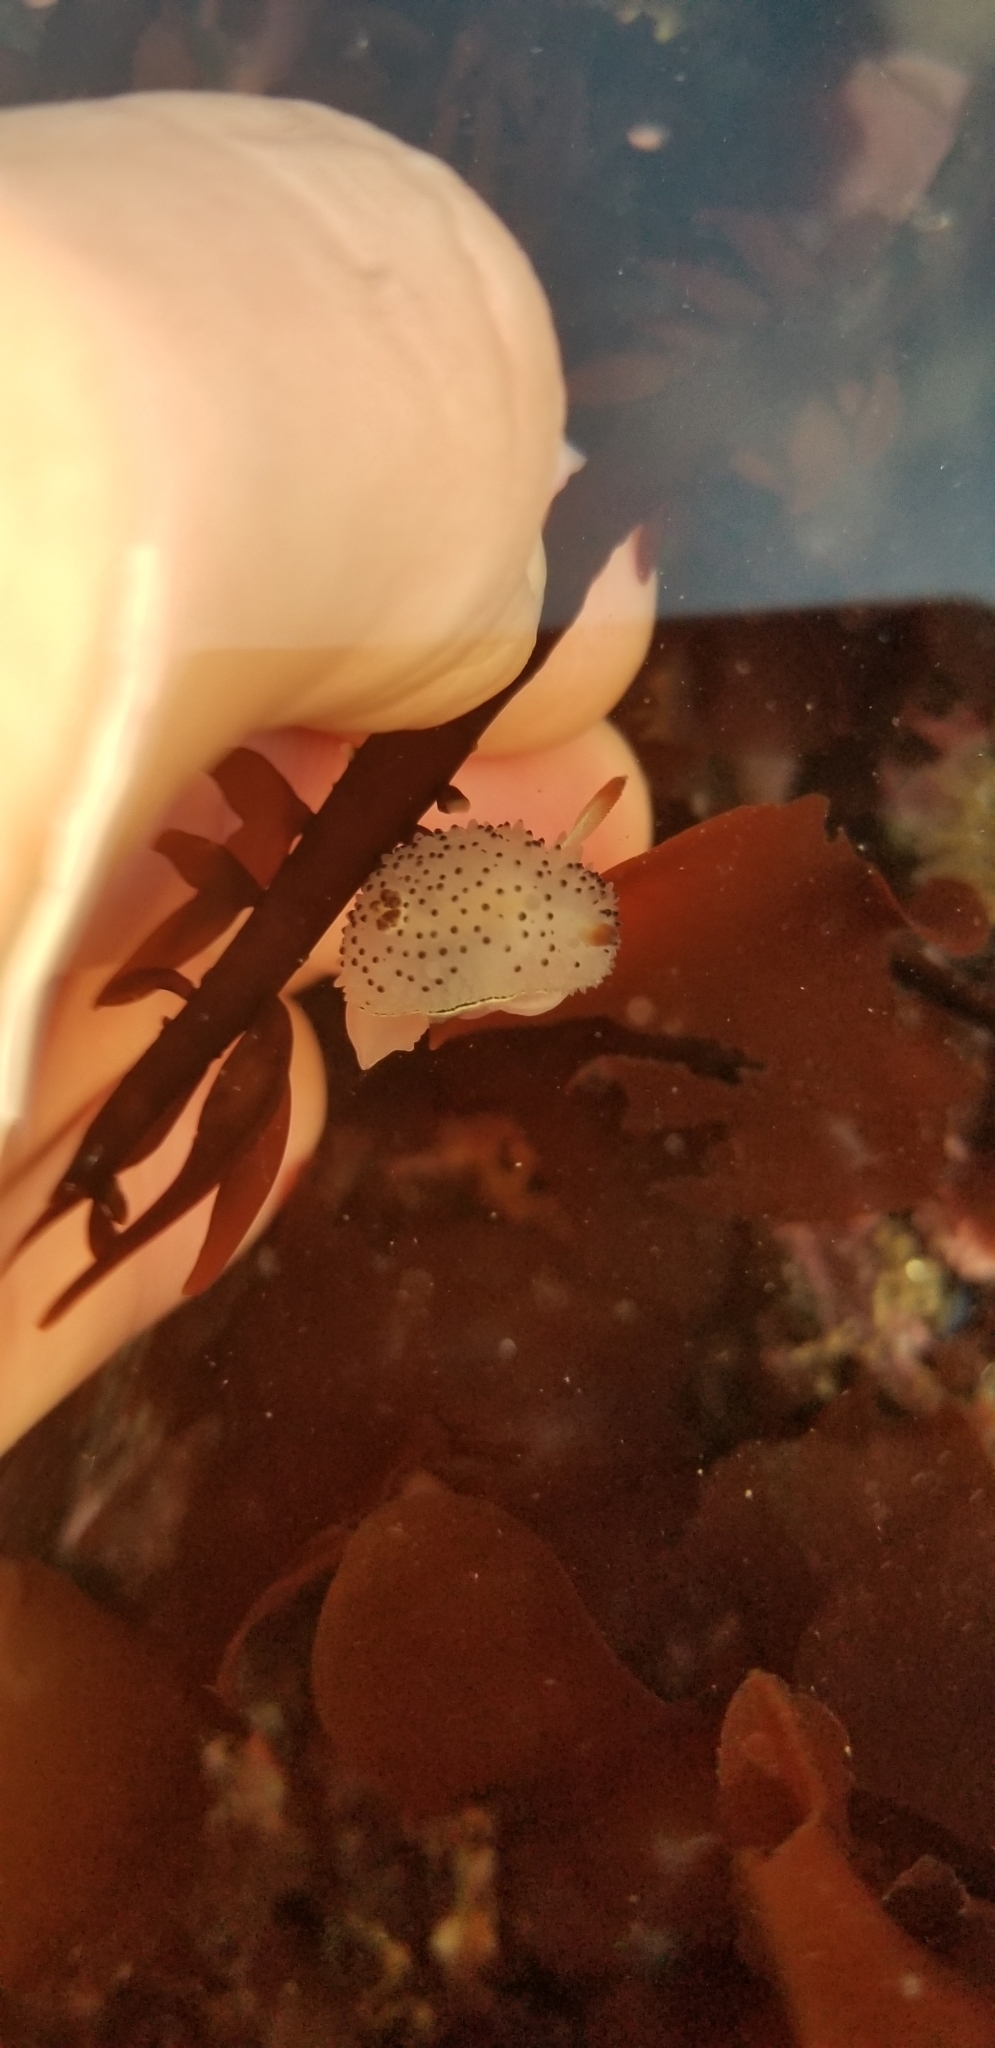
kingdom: Animalia
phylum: Mollusca
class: Gastropoda
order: Nudibranchia
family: Onchidorididae
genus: Acanthodoris
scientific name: Acanthodoris rhodoceras
